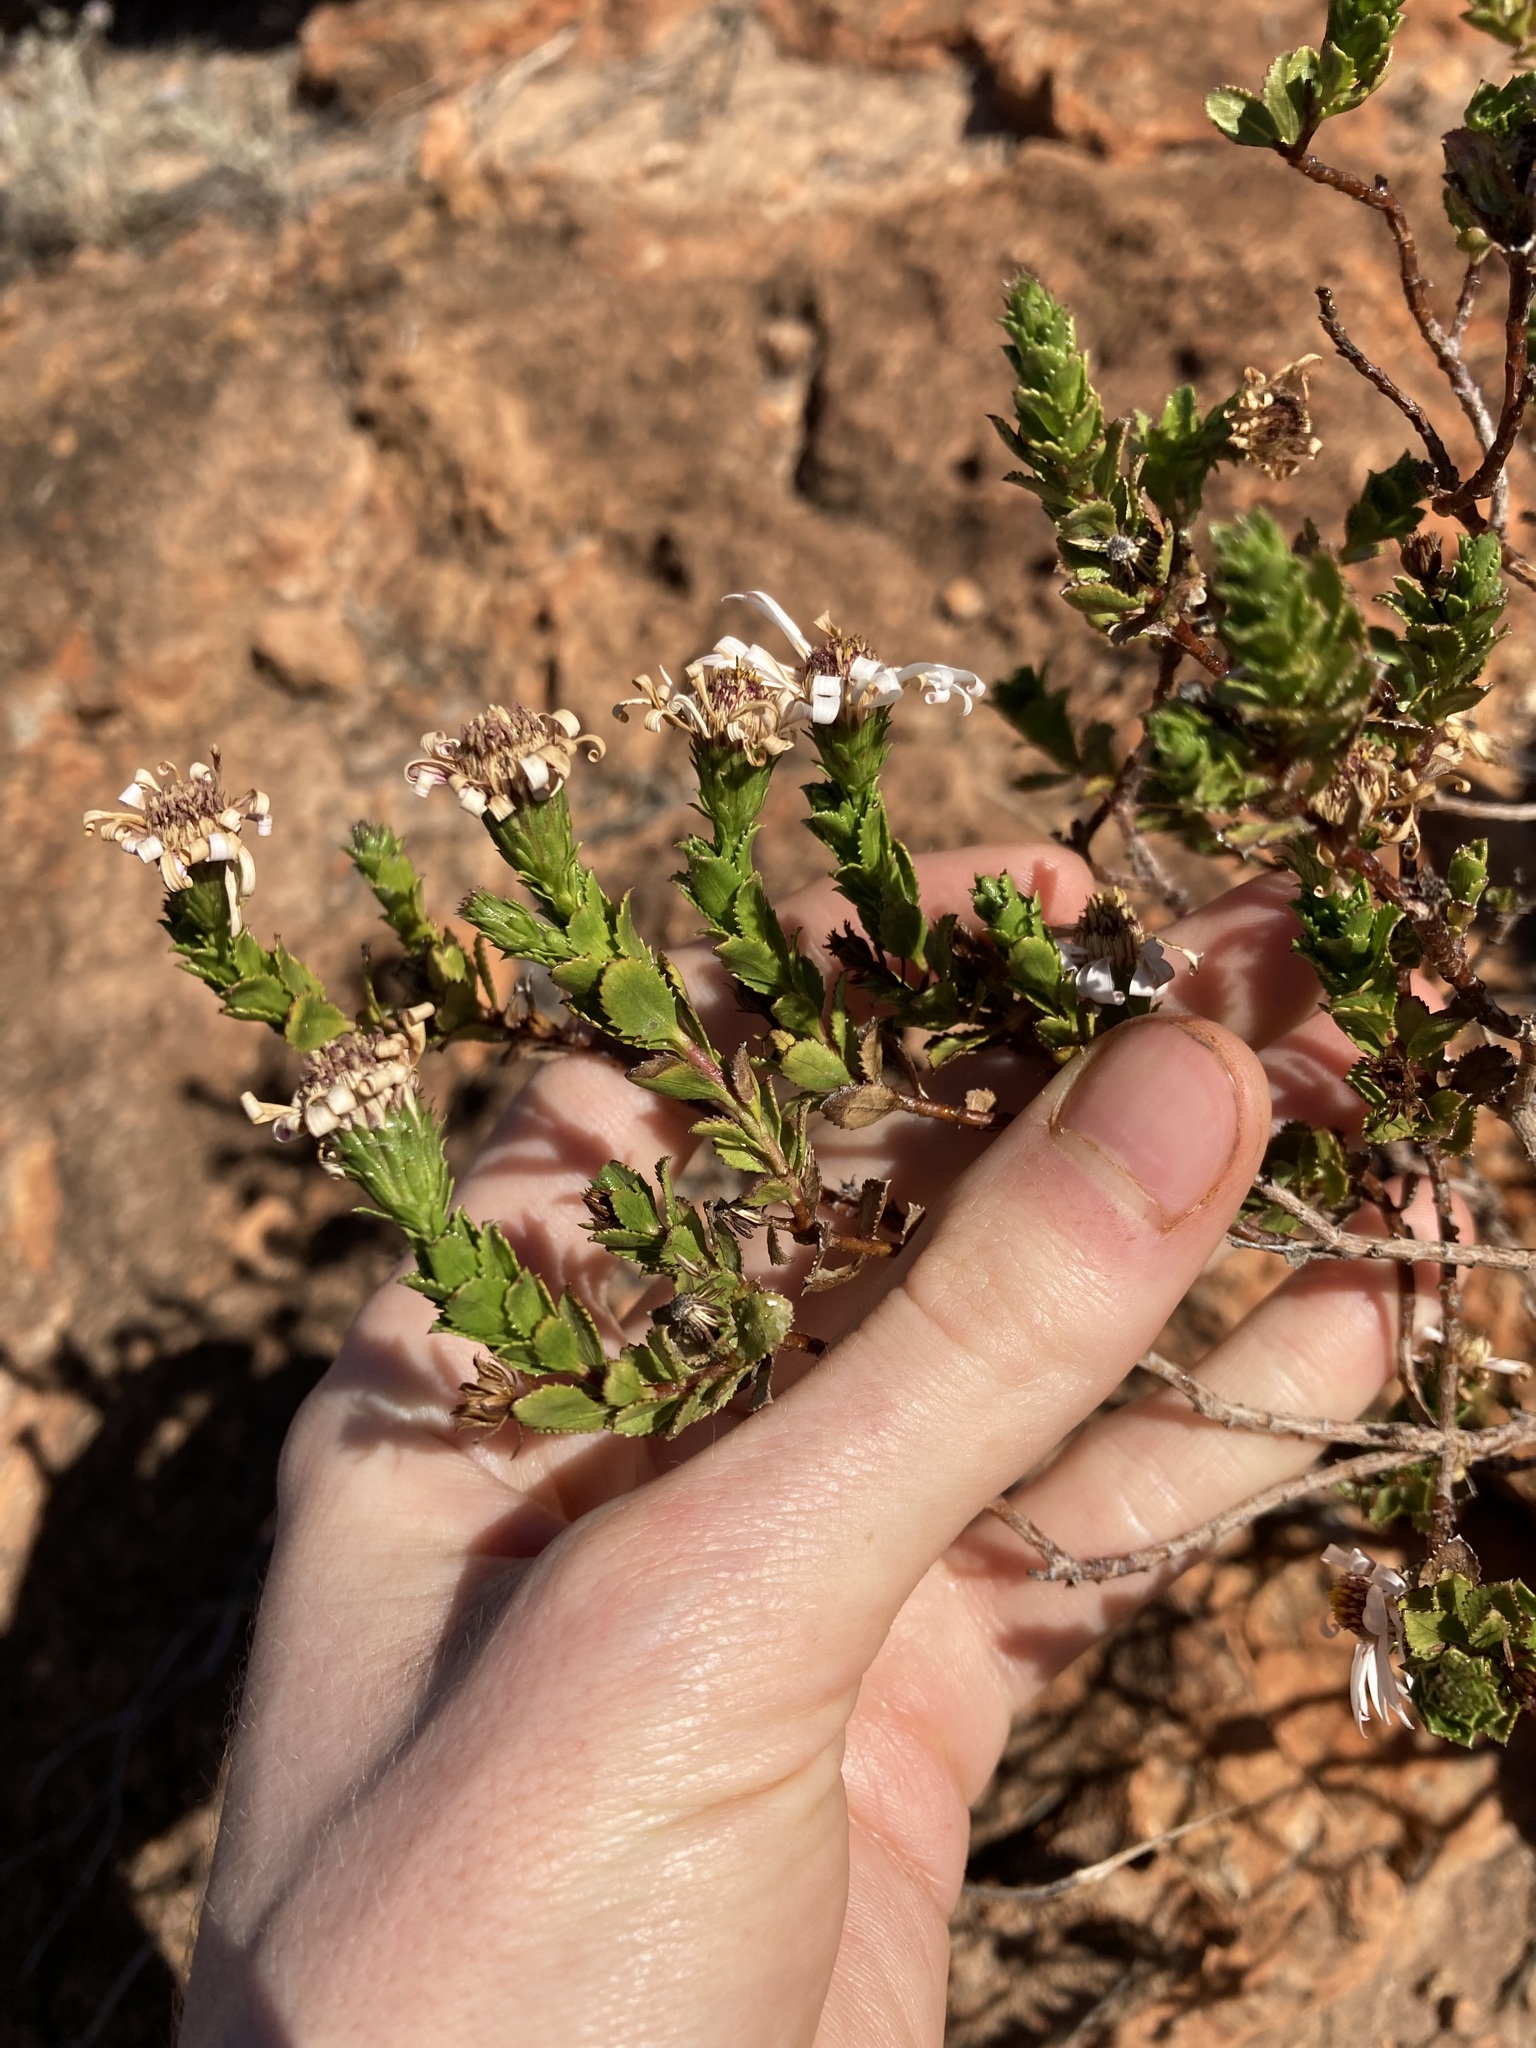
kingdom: Plantae
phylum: Tracheophyta
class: Magnoliopsida
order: Asterales
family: Asteraceae
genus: Landerolaria
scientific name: Landerolaria eremaea
